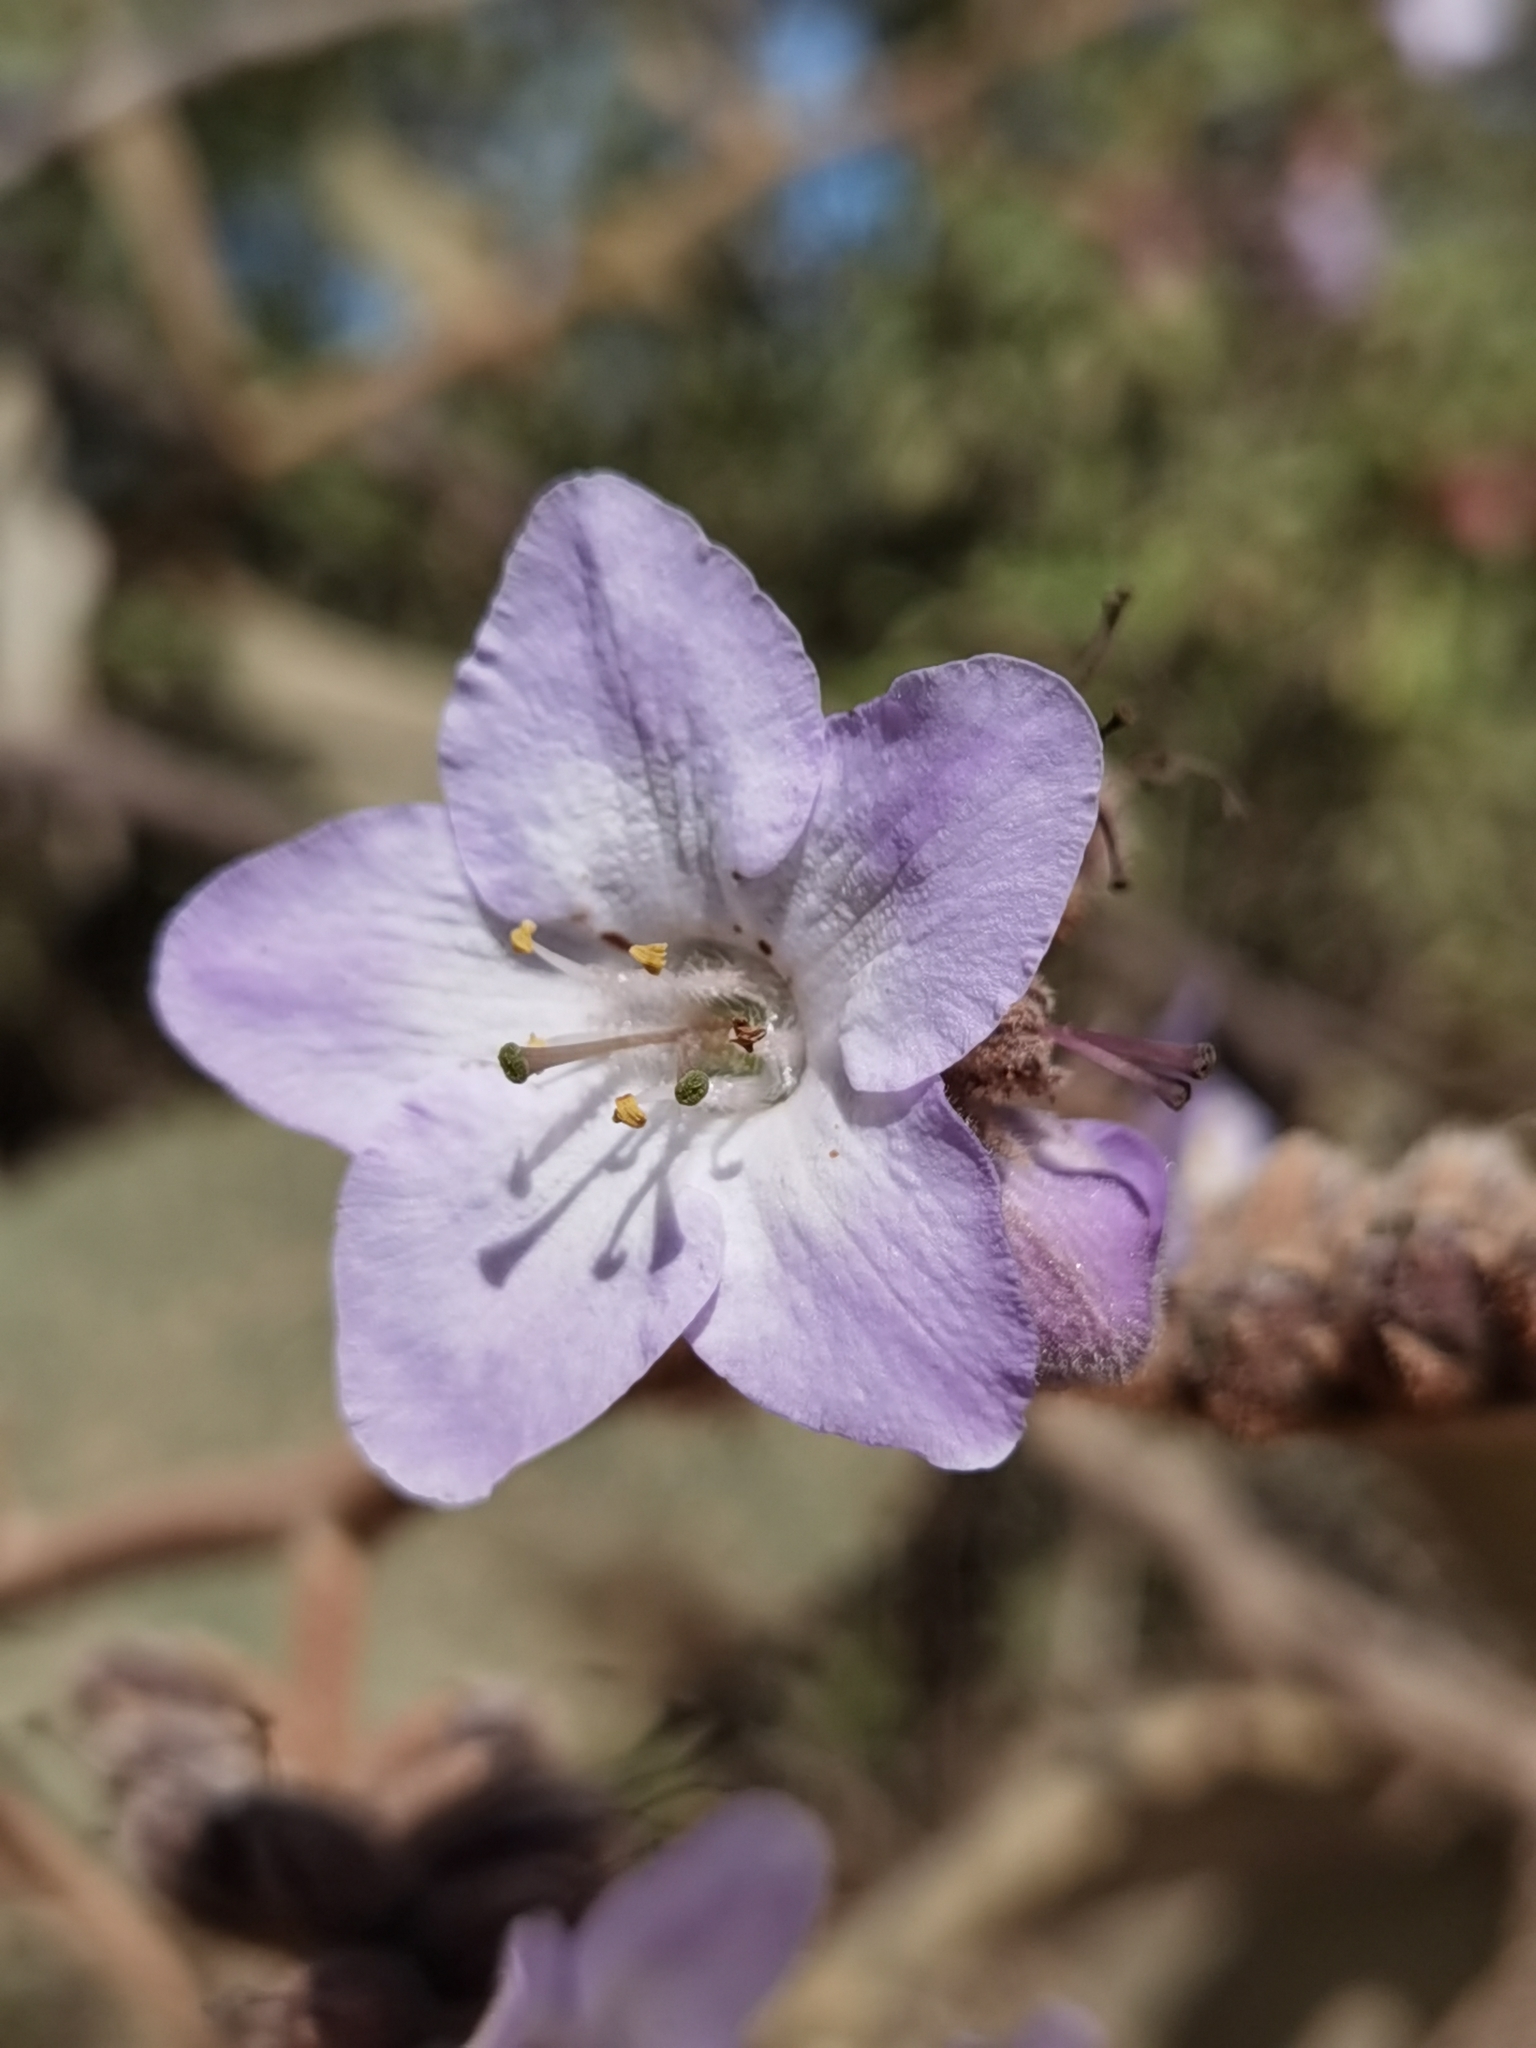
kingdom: Plantae
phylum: Tracheophyta
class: Magnoliopsida
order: Boraginales
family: Namaceae
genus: Wigandia
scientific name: Wigandia urens
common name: Caracus wigandia
